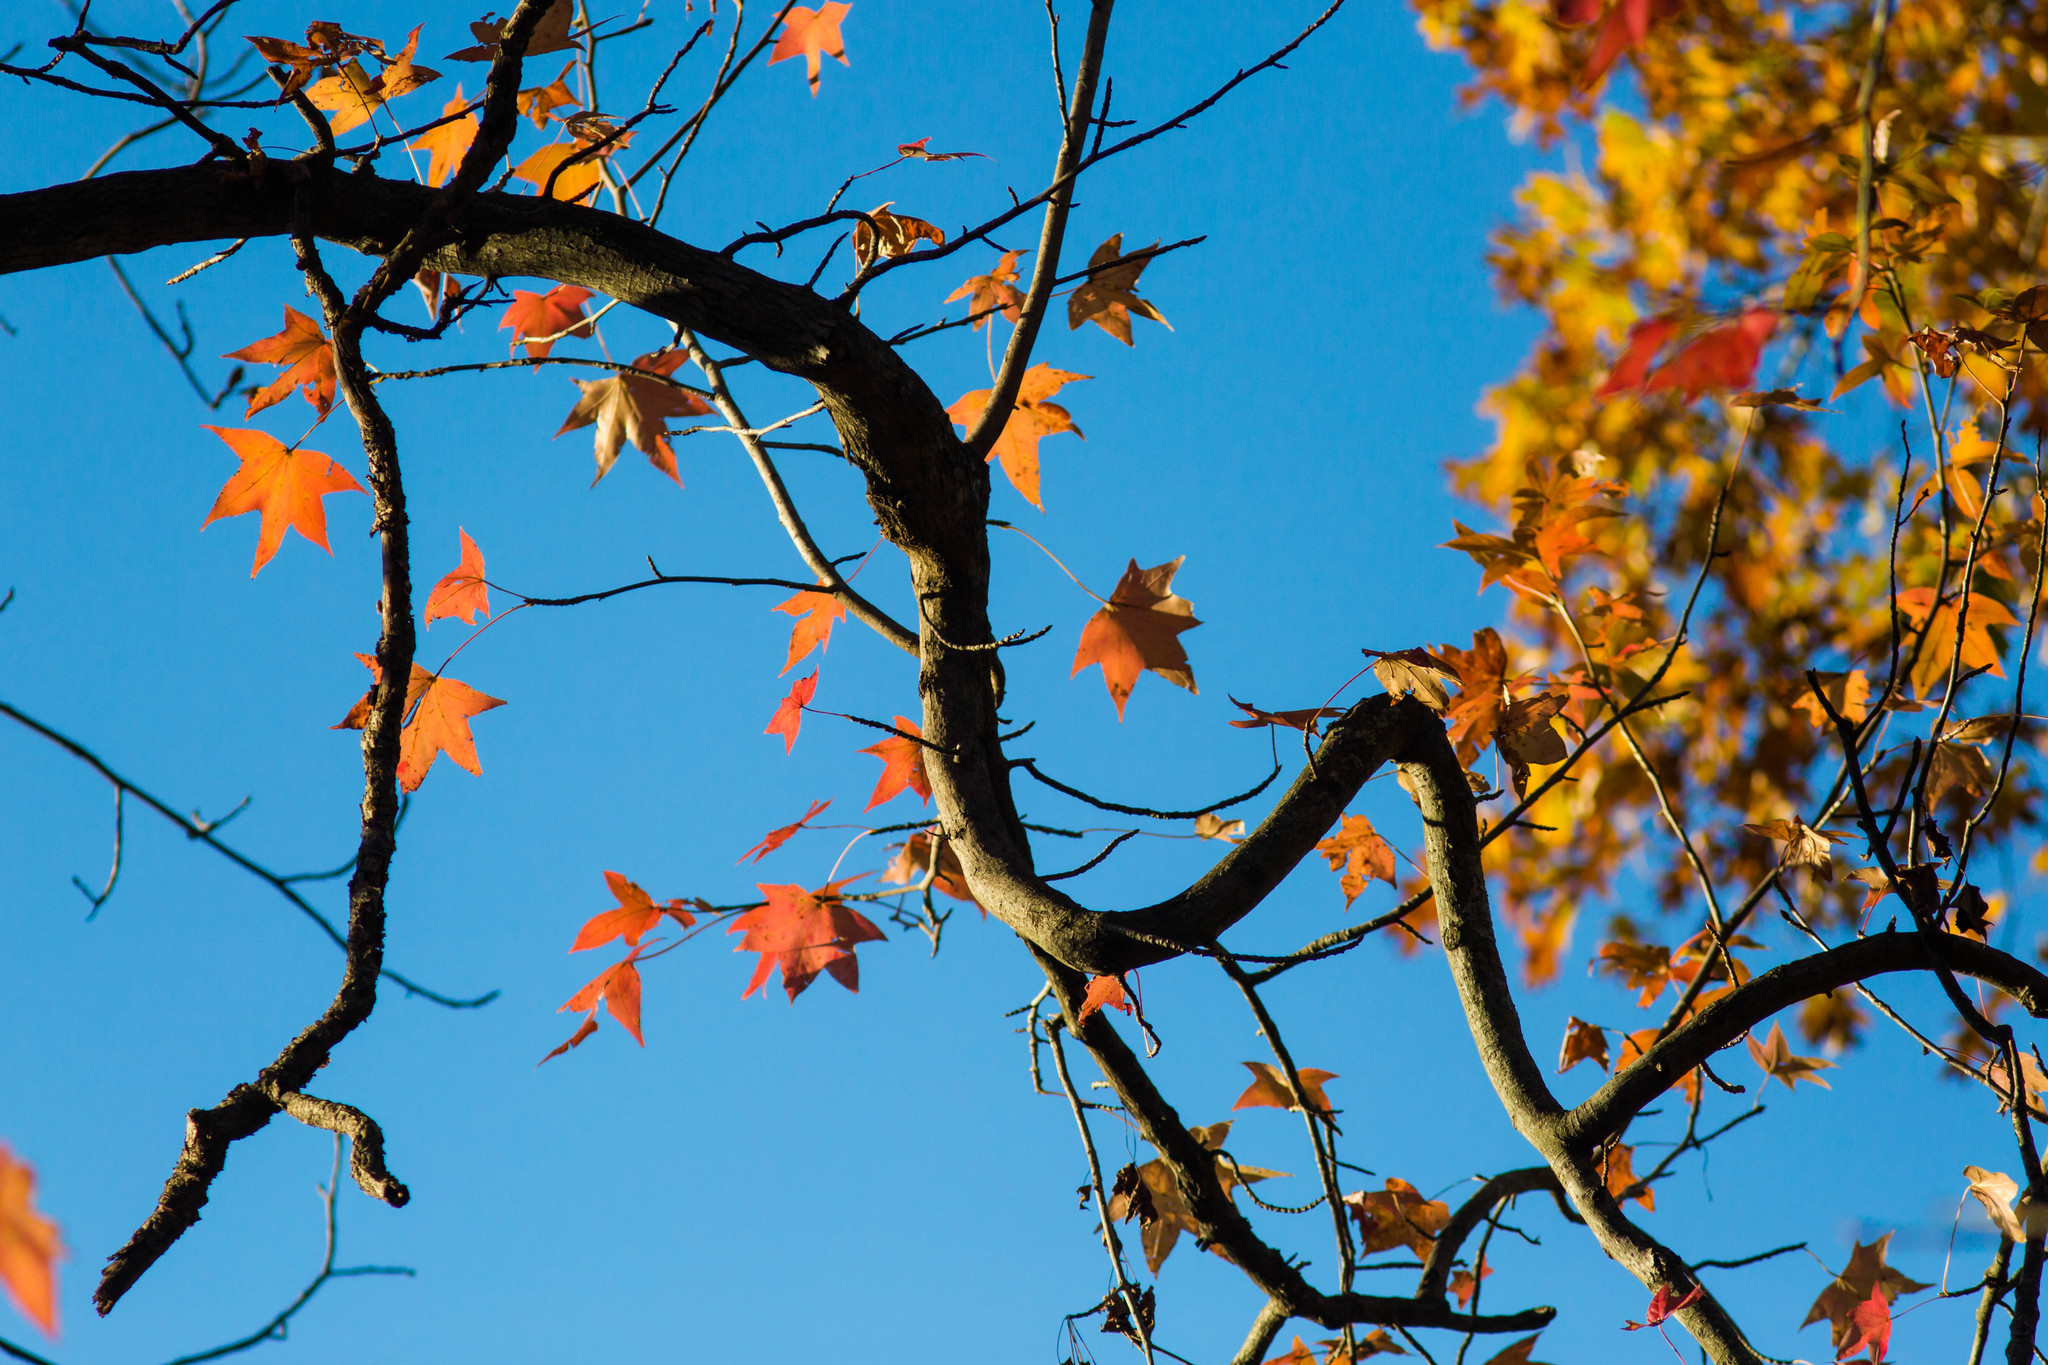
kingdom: Plantae
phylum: Tracheophyta
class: Magnoliopsida
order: Saxifragales
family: Altingiaceae
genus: Liquidambar
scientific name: Liquidambar styraciflua
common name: Sweet gum
